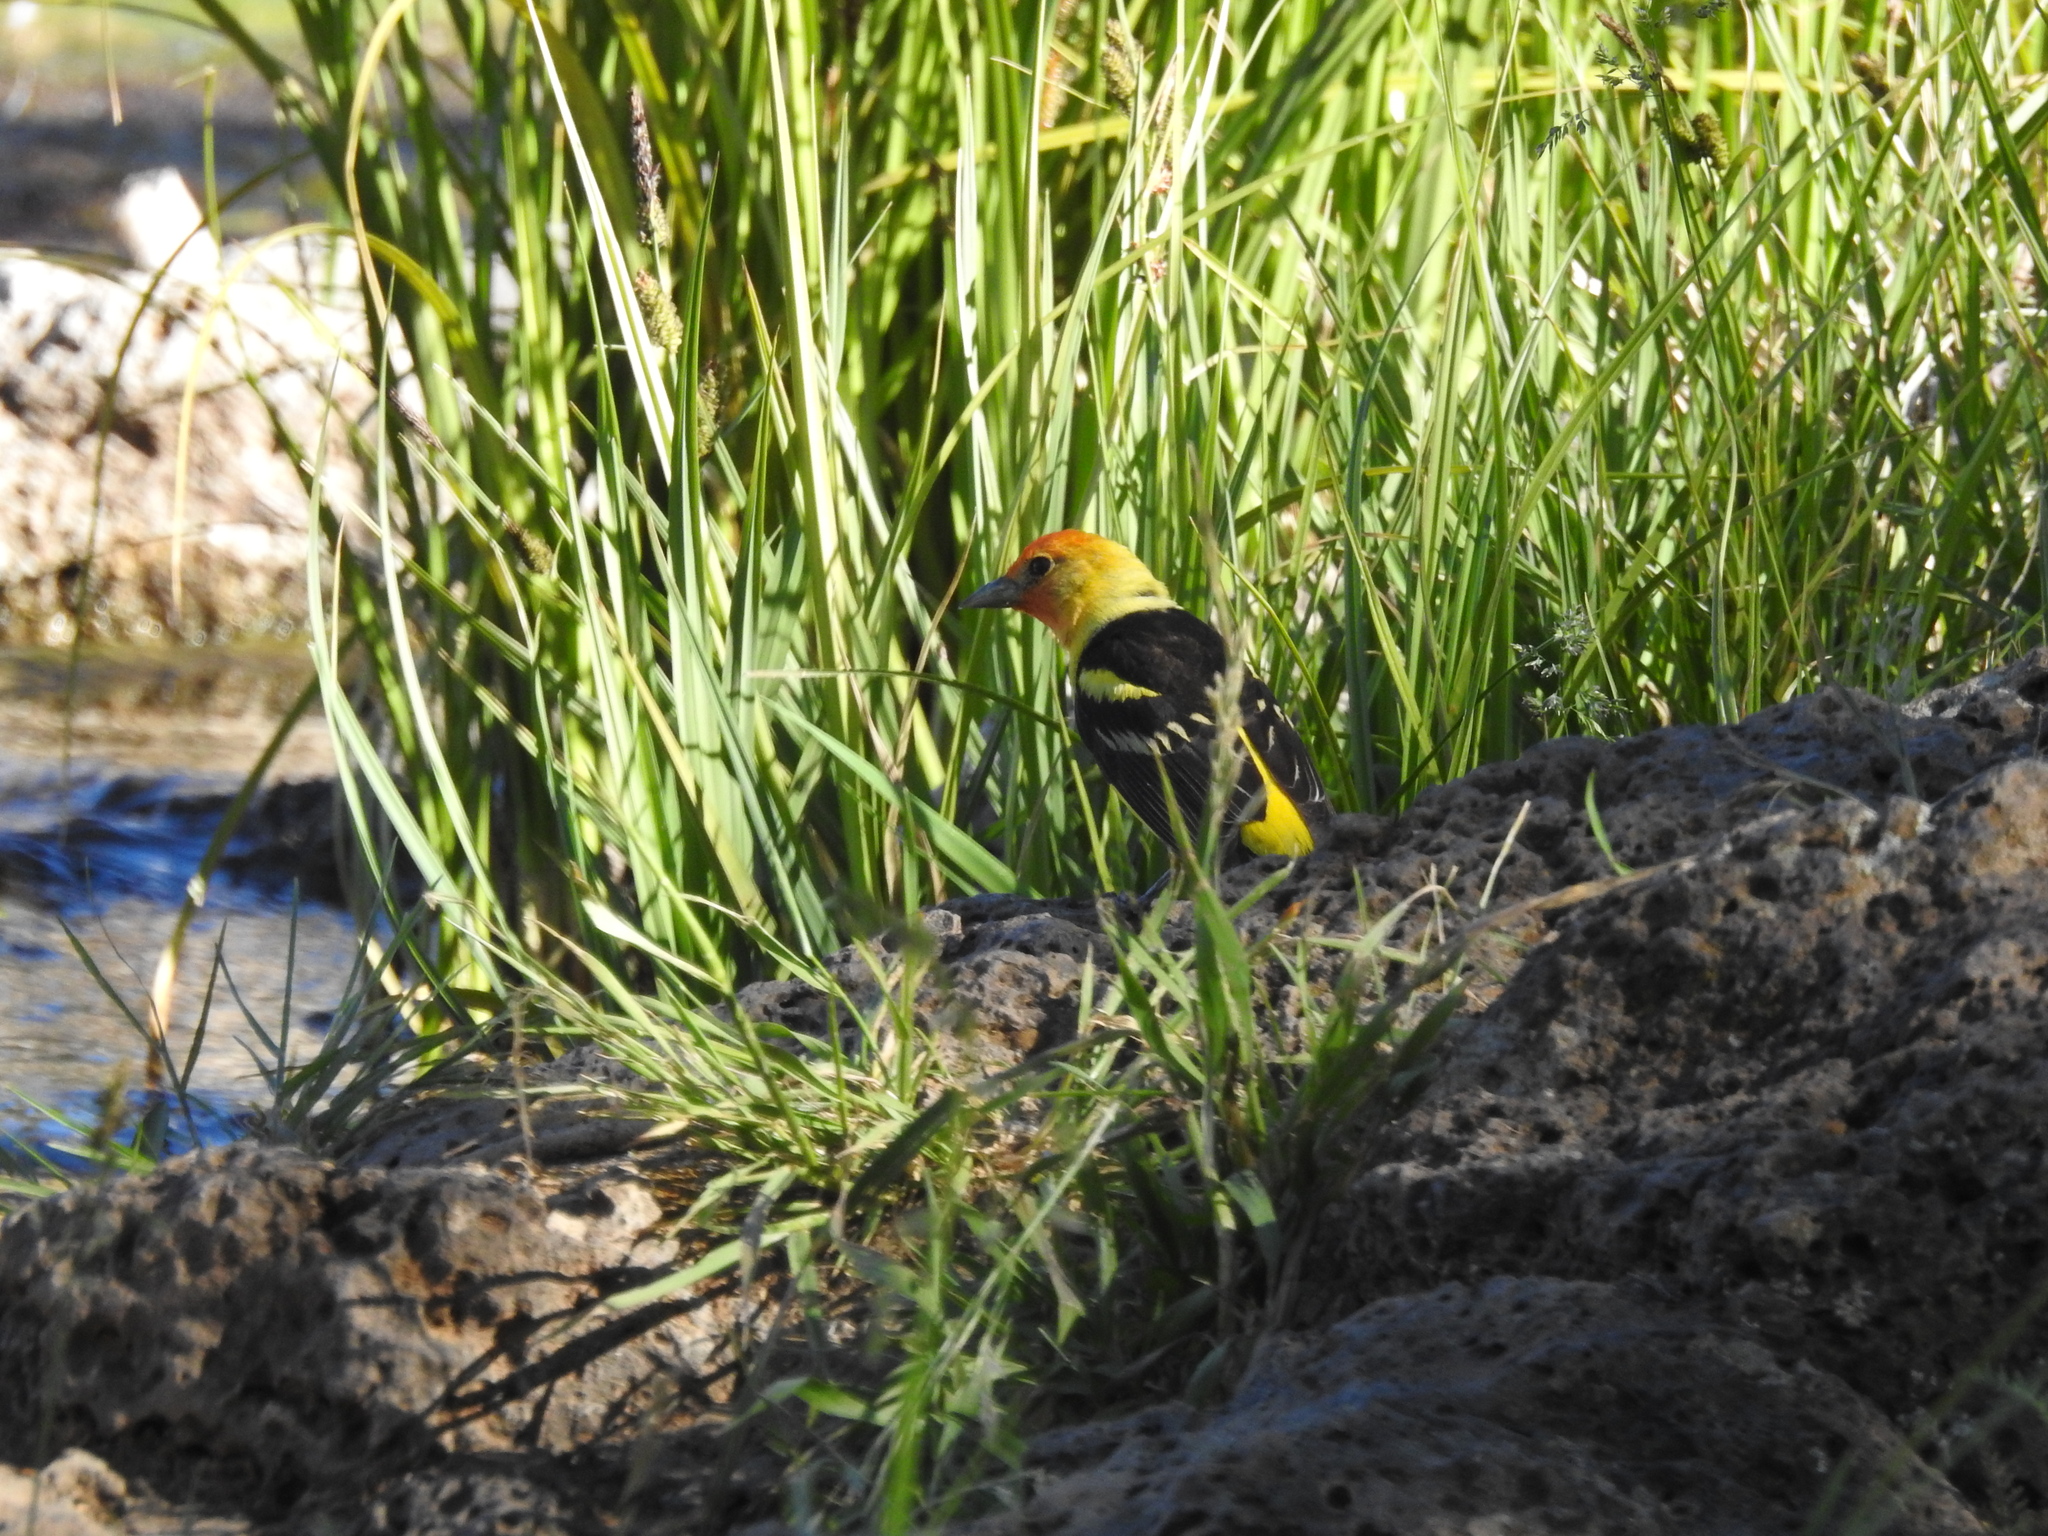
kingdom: Animalia
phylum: Chordata
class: Aves
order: Passeriformes
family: Cardinalidae
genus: Piranga
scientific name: Piranga ludoviciana
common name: Western tanager
